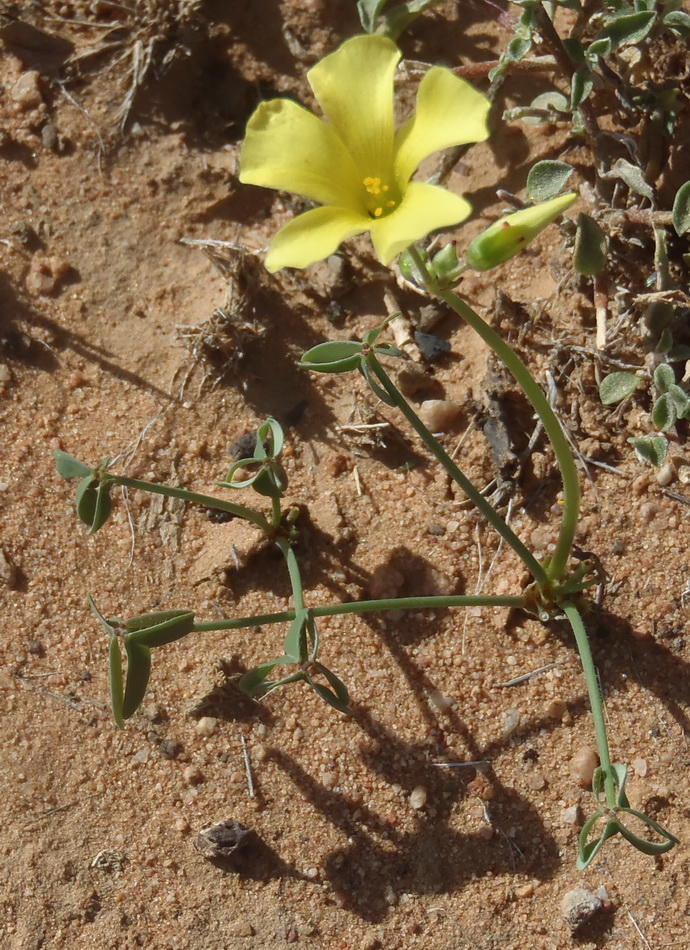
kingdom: Plantae
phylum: Tracheophyta
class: Magnoliopsida
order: Oxalidales
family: Oxalidaceae
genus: Oxalis
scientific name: Oxalis pes-caprae
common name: Bermuda-buttercup
